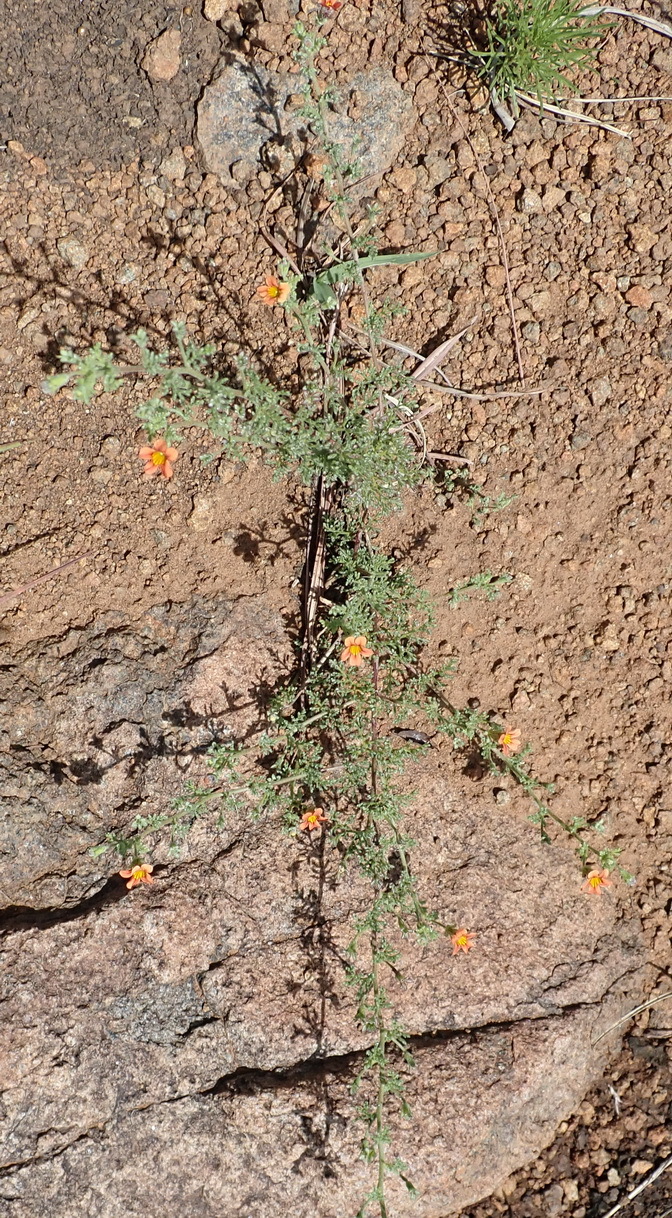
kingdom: Plantae
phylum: Tracheophyta
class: Magnoliopsida
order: Lamiales
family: Scrophulariaceae
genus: Jamesbrittenia
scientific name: Jamesbrittenia aurantiaca
